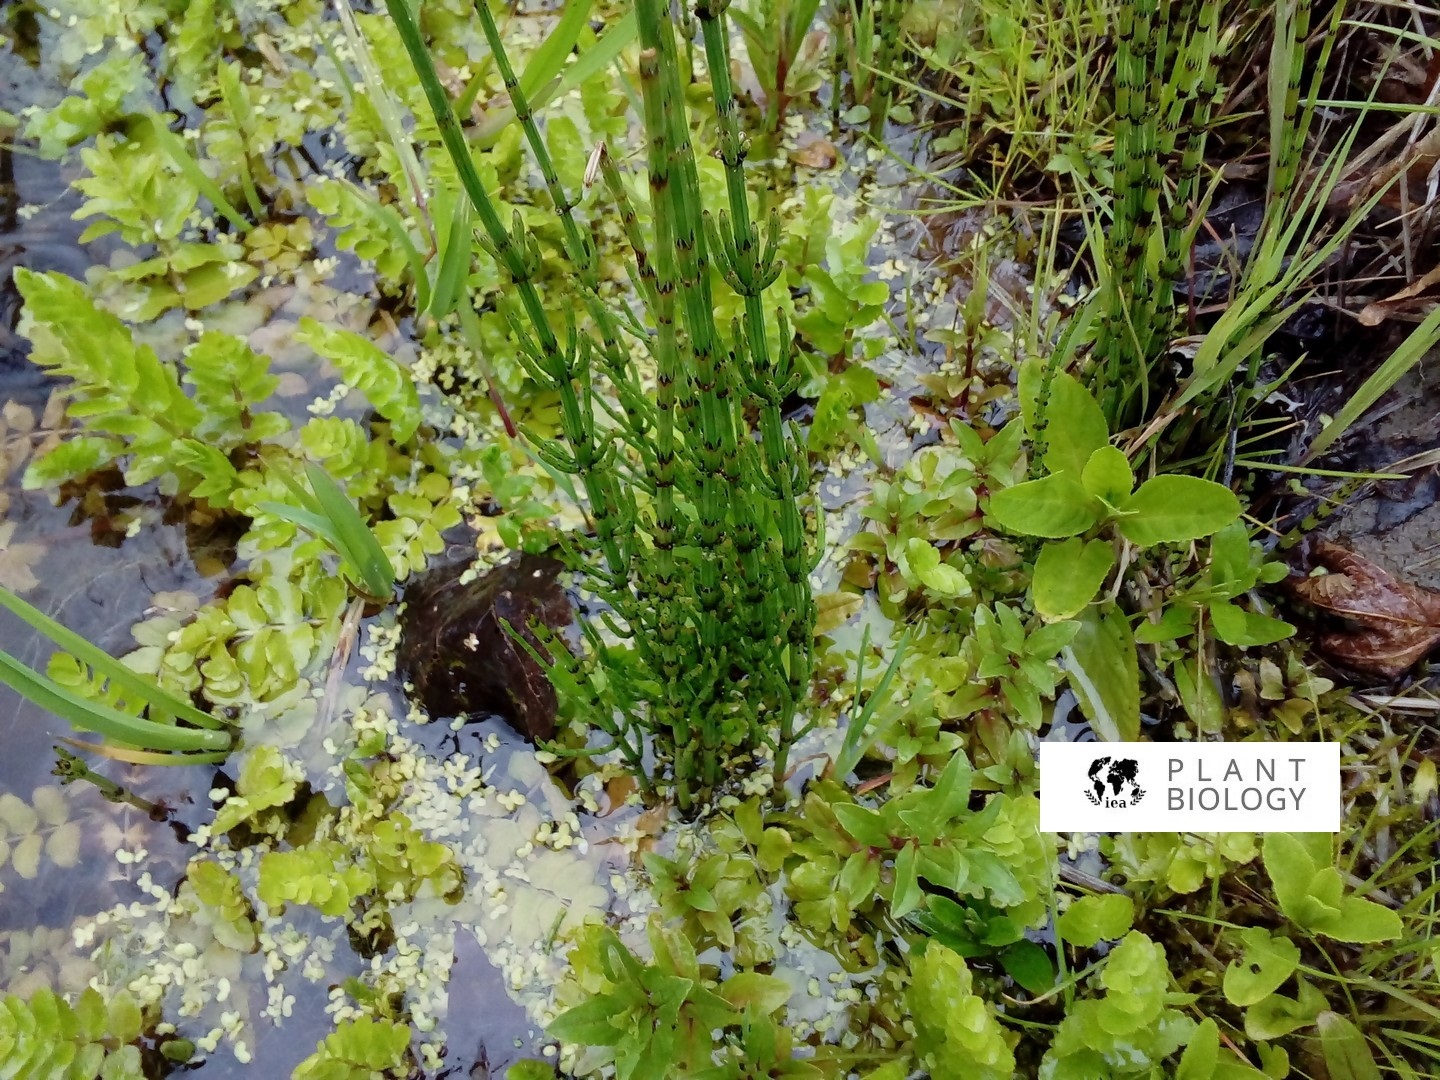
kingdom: Plantae
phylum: Tracheophyta
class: Polypodiopsida
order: Equisetales
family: Equisetaceae
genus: Equisetum
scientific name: Equisetum palustre
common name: Marsh horsetail
